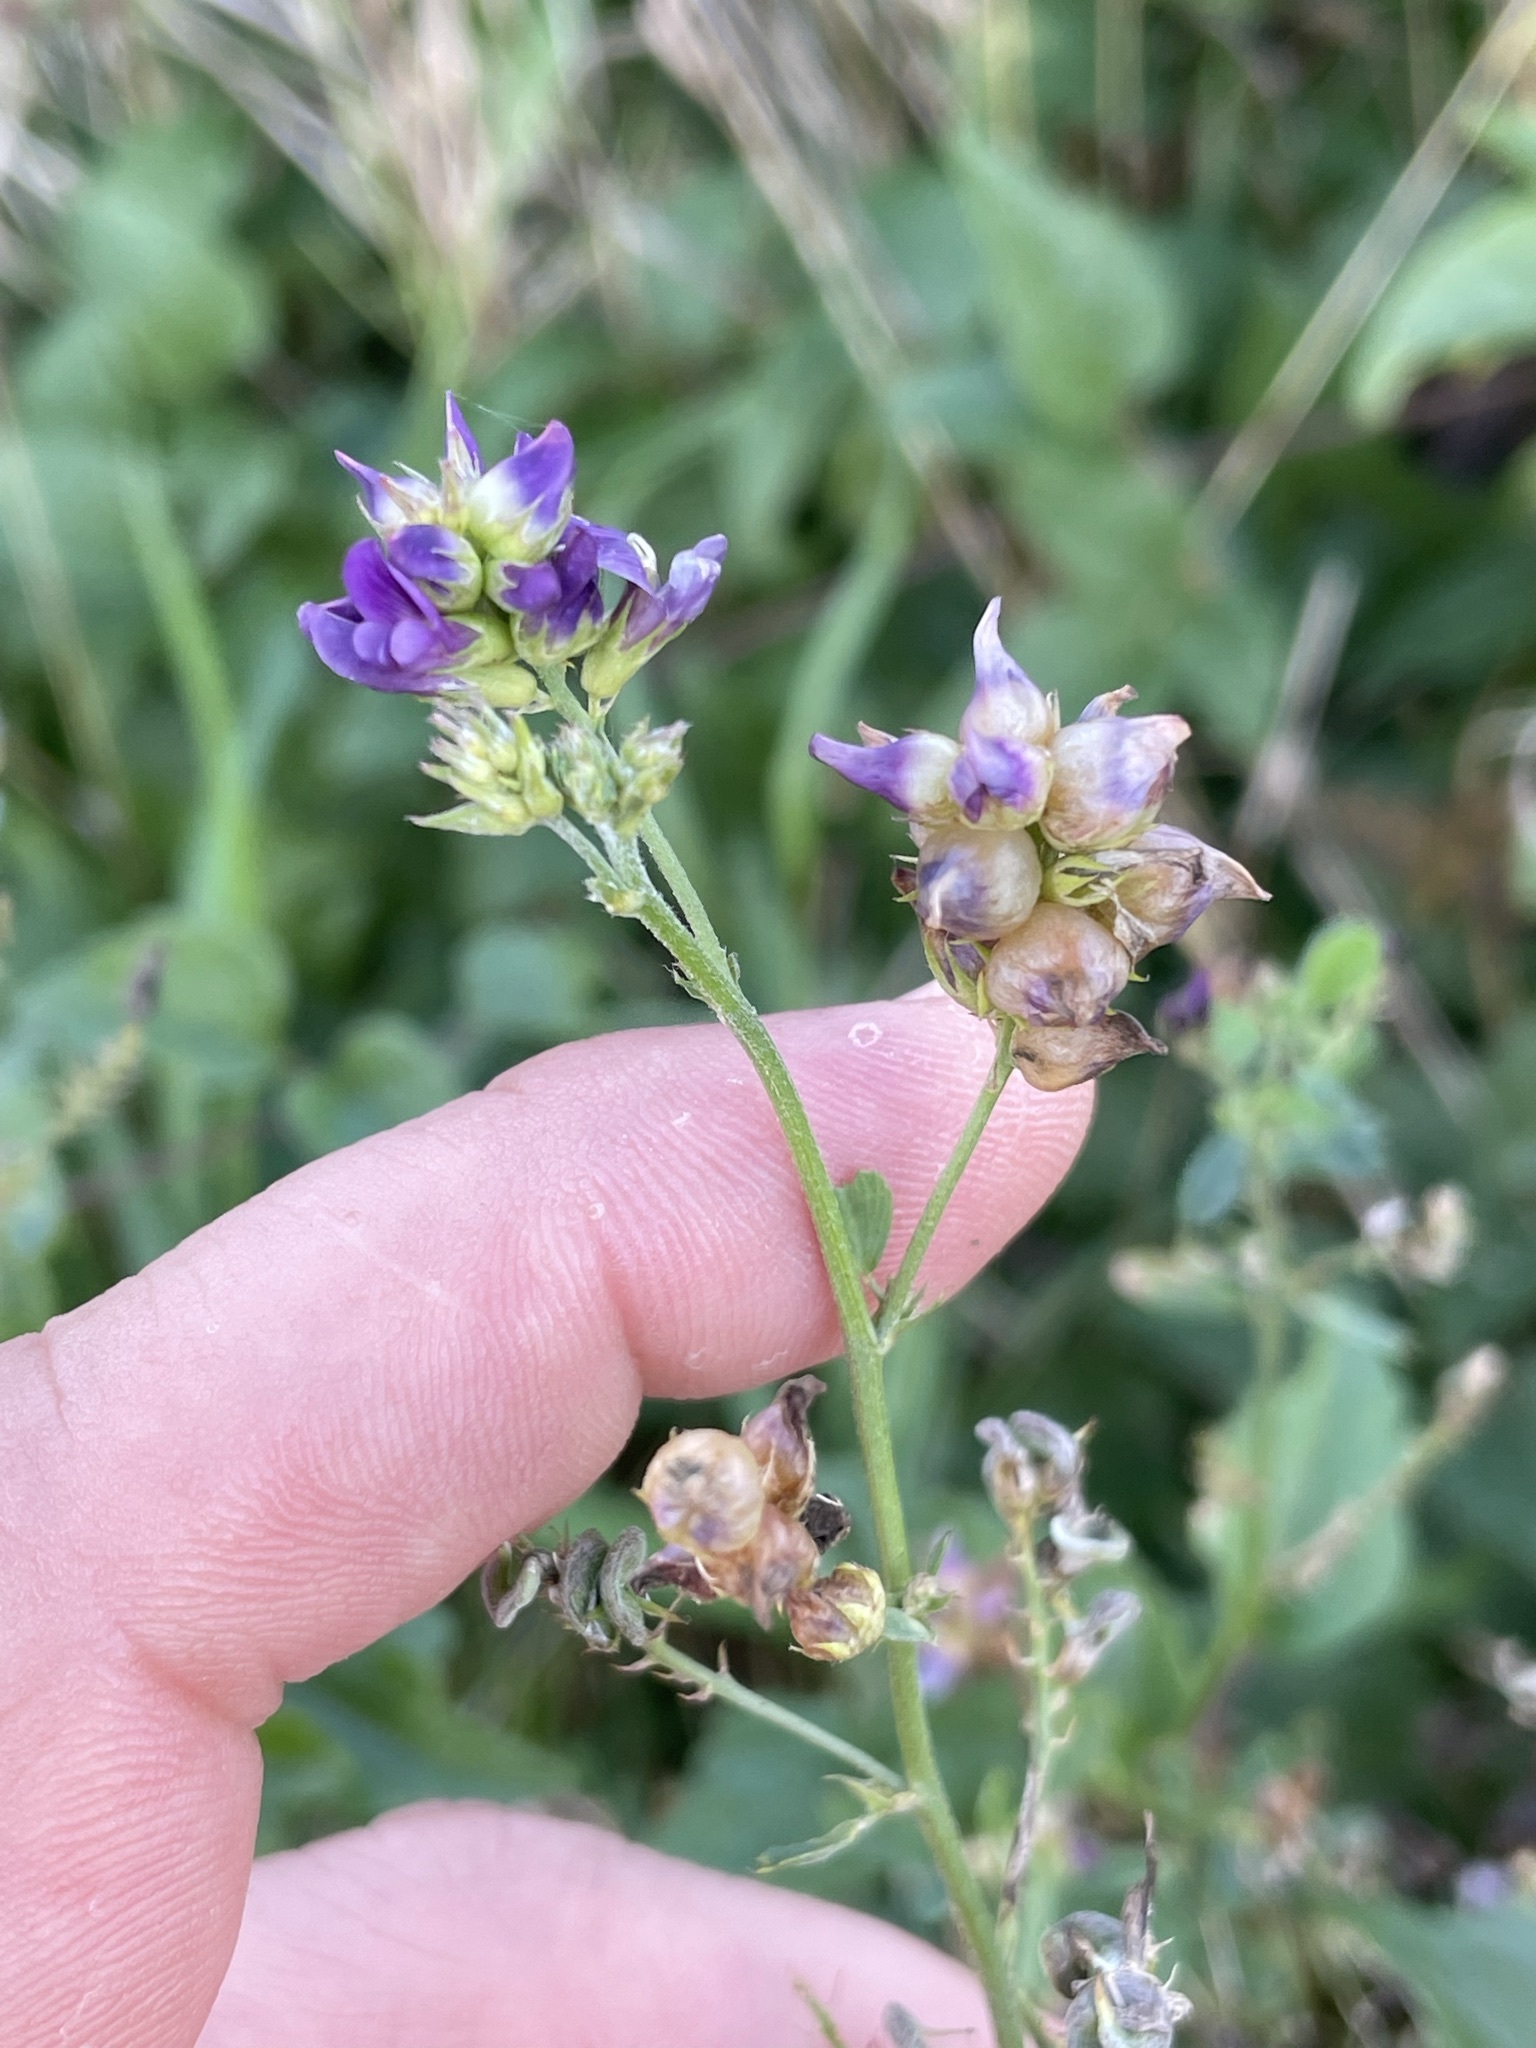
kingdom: Plantae
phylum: Tracheophyta
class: Magnoliopsida
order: Fabales
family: Fabaceae
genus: Medicago
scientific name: Medicago sativa
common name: Alfalfa
